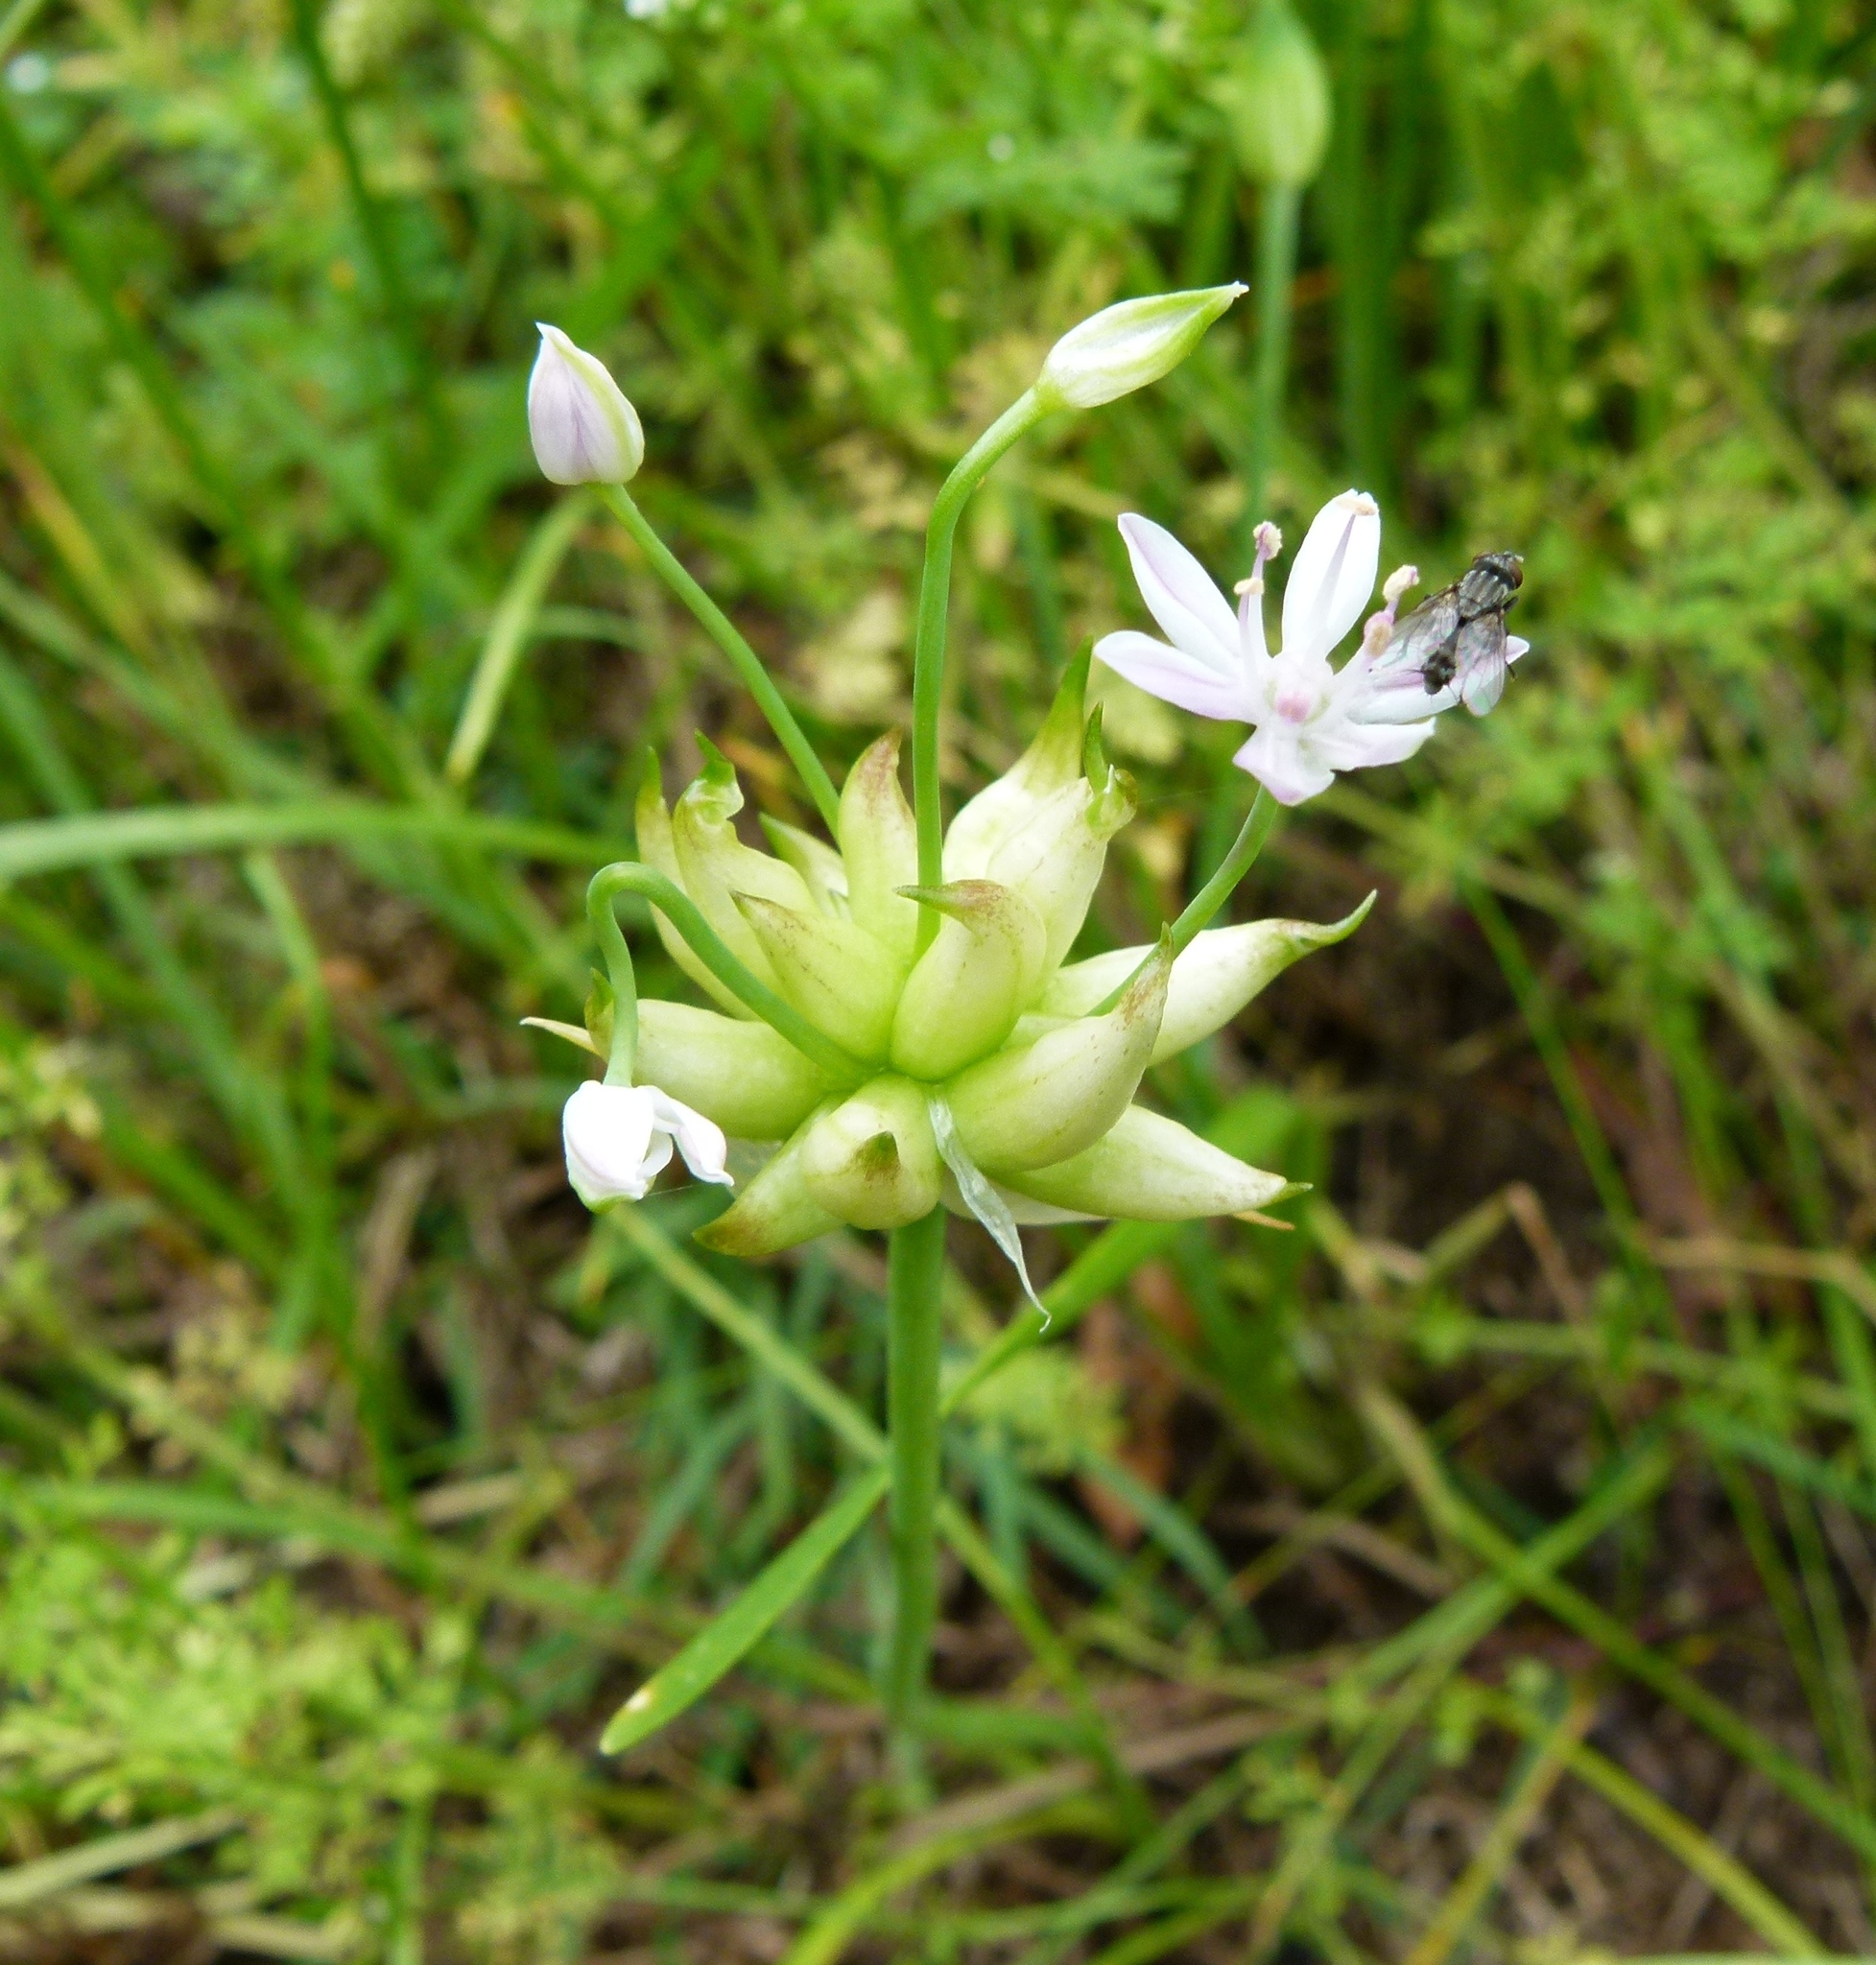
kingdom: Plantae
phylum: Tracheophyta
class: Liliopsida
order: Asparagales
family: Amaryllidaceae
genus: Allium
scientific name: Allium canadense
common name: Meadow garlic
